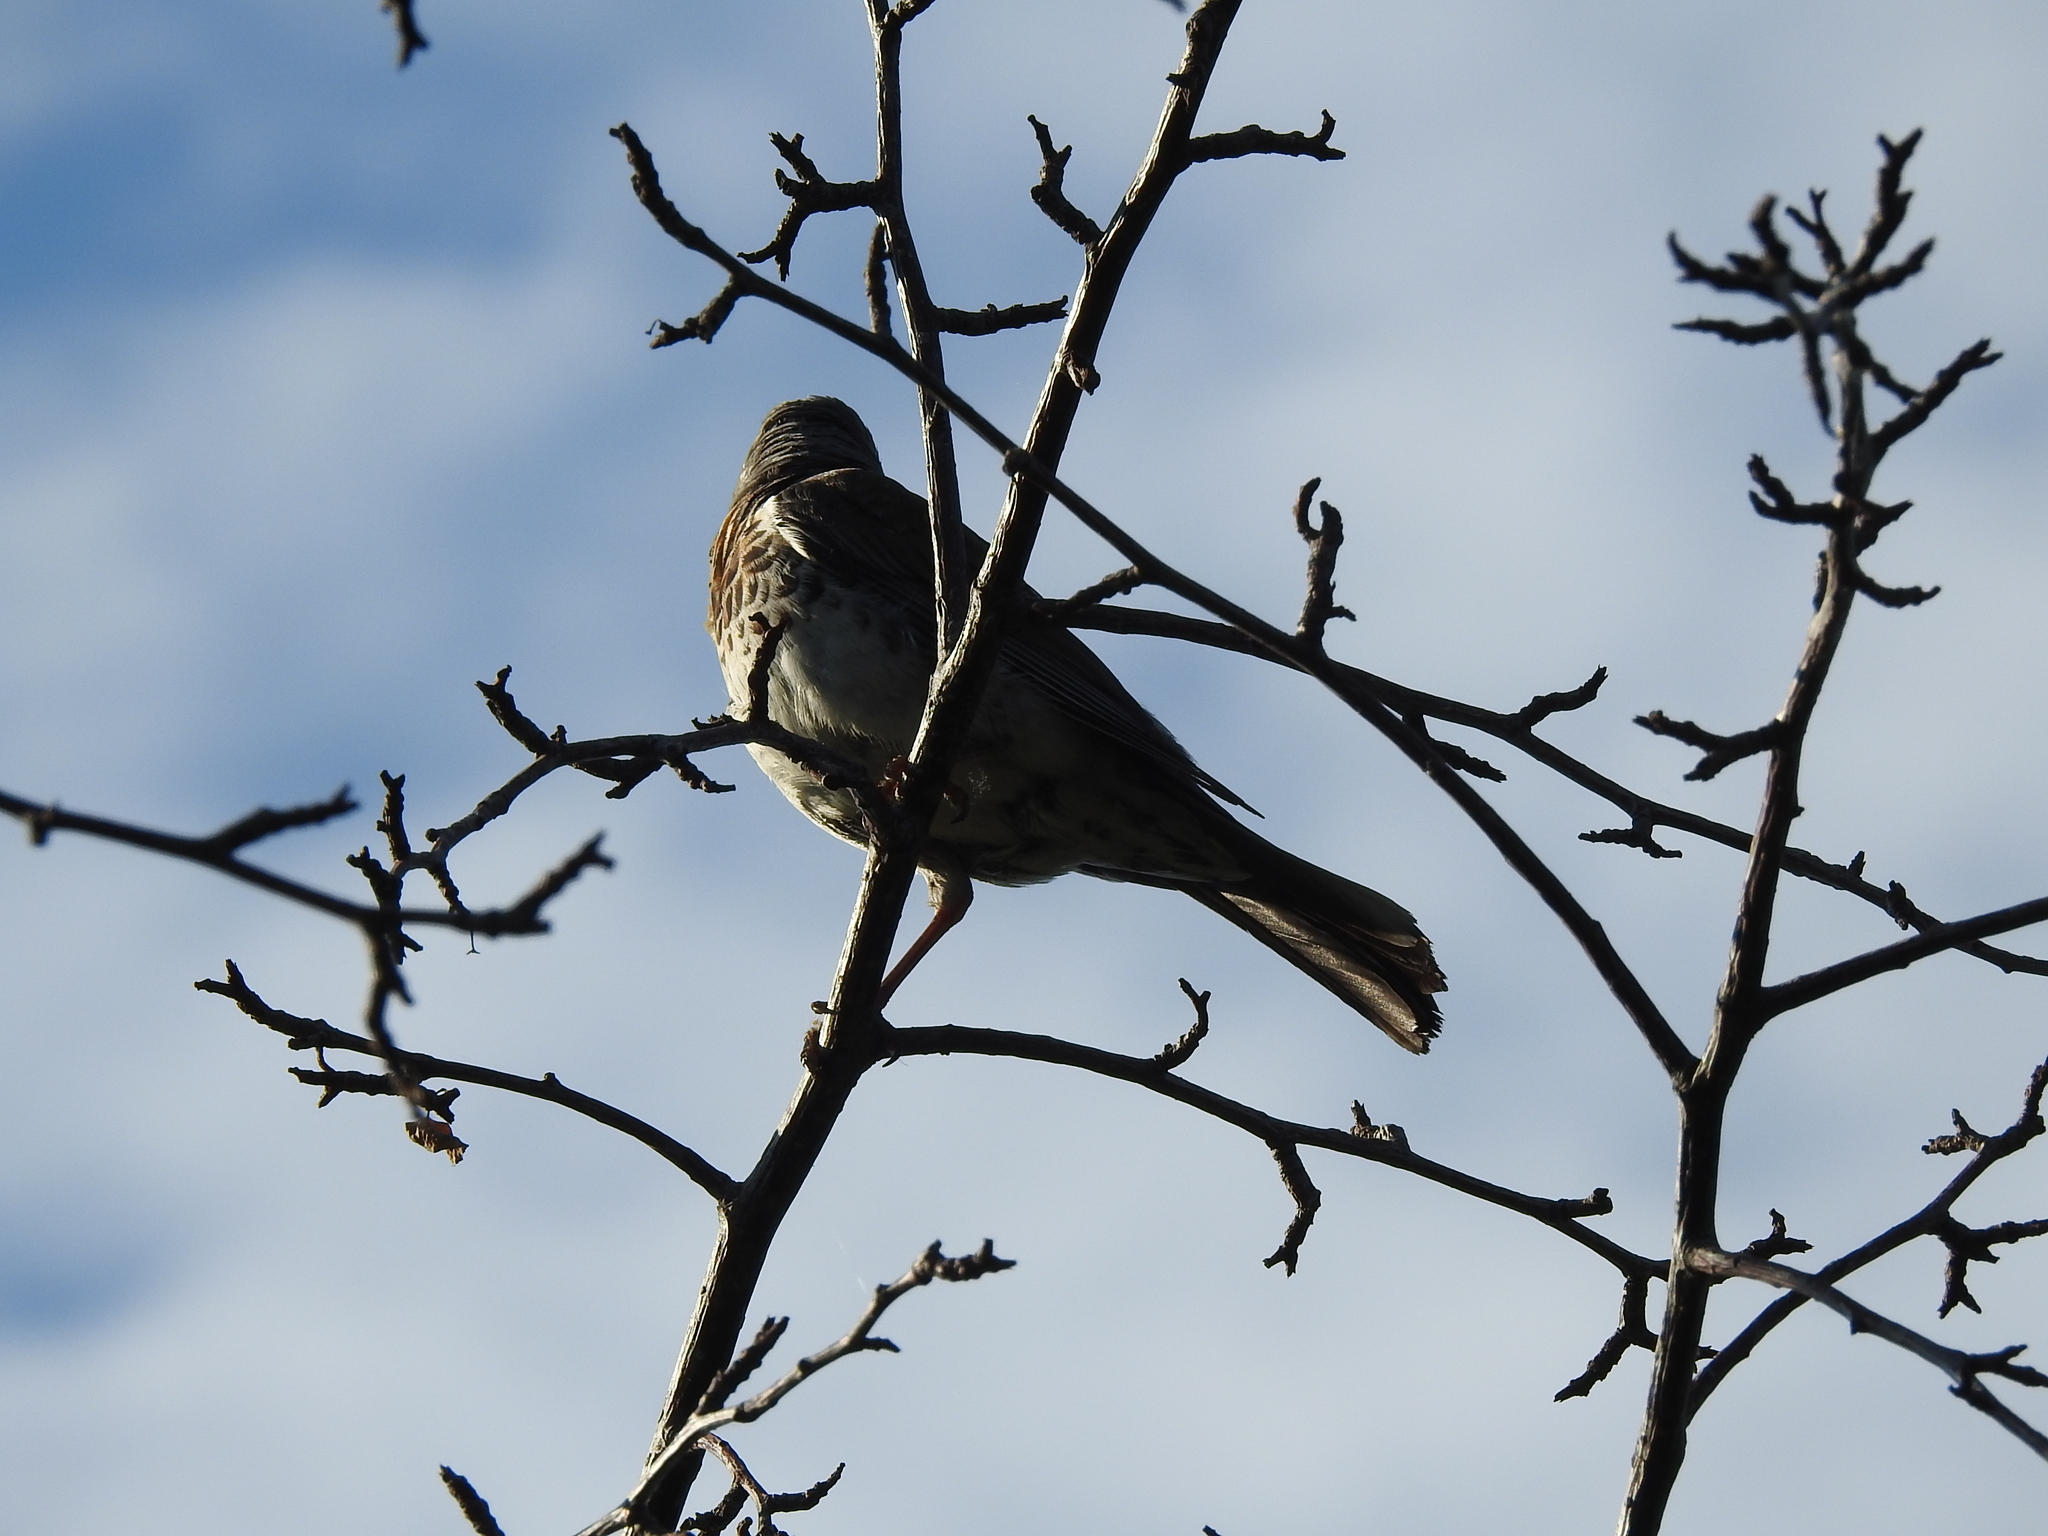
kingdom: Animalia
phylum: Chordata
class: Aves
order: Passeriformes
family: Turdidae
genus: Turdus
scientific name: Turdus pilaris
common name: Fieldfare
